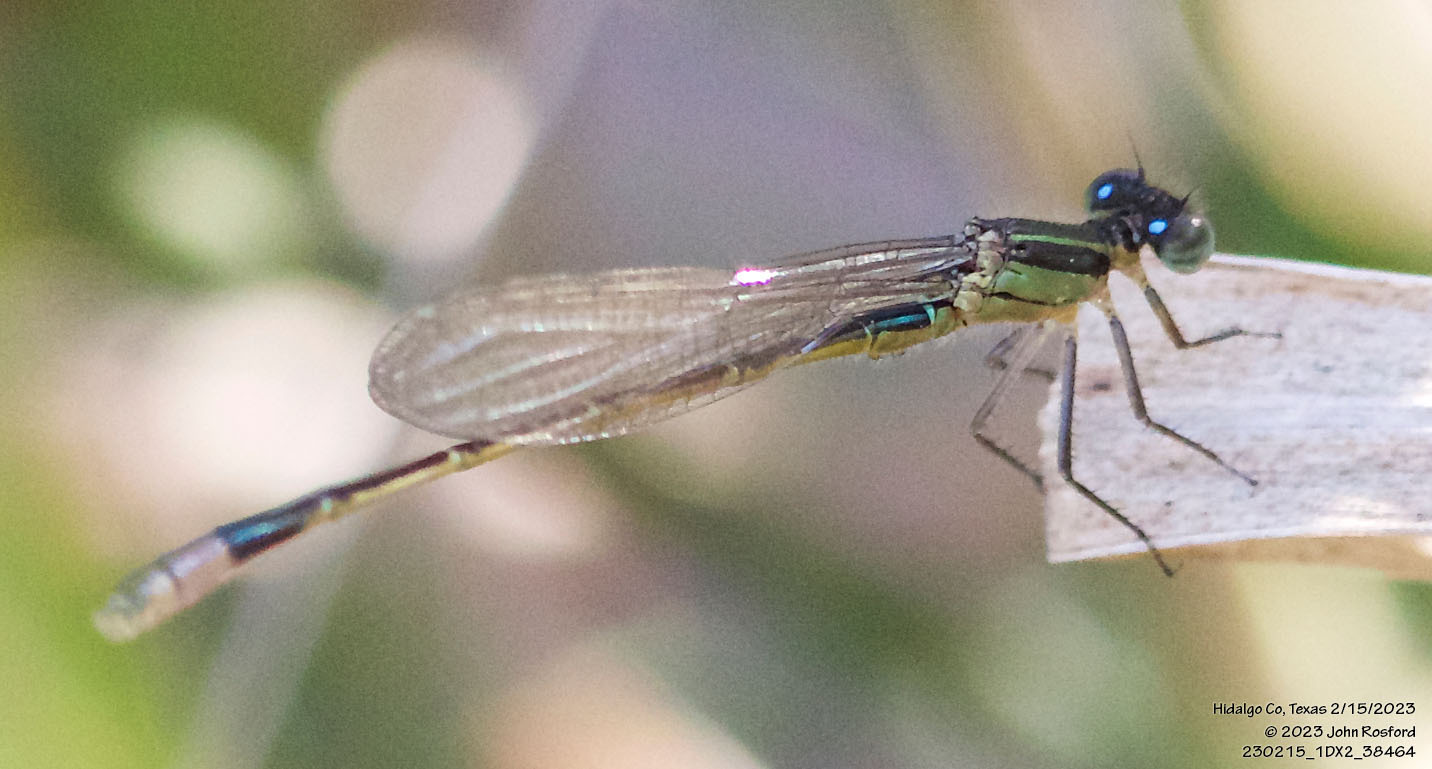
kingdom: Animalia
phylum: Arthropoda
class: Insecta
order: Odonata
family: Coenagrionidae
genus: Ischnura
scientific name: Ischnura ramburii
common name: Rambur's forktail
